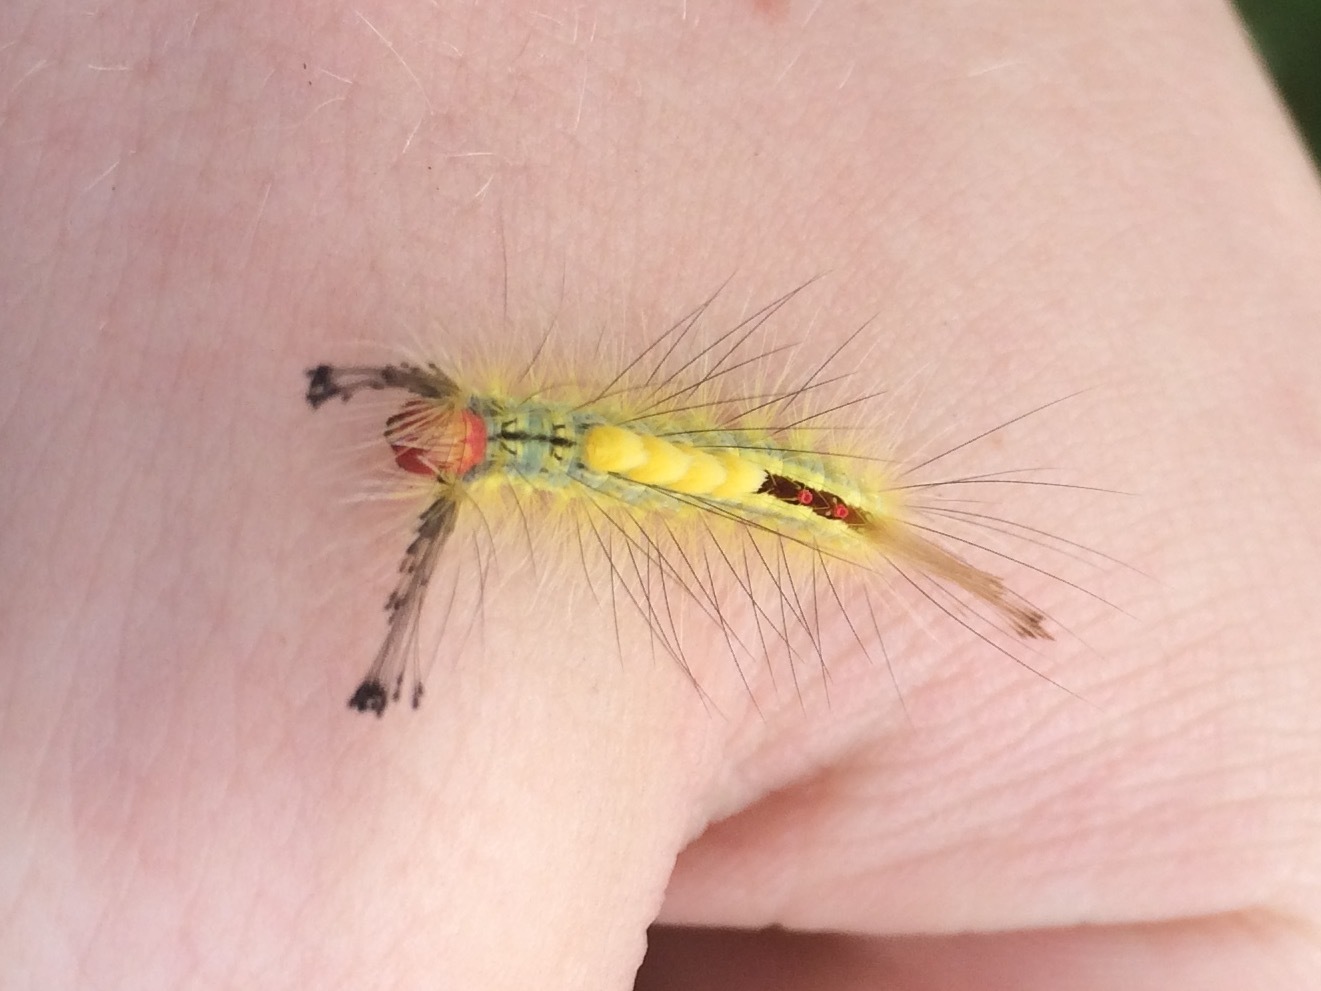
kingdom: Animalia
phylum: Arthropoda
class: Insecta
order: Lepidoptera
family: Erebidae
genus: Orgyia
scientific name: Orgyia leucostigma
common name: White-marked tussock moth
